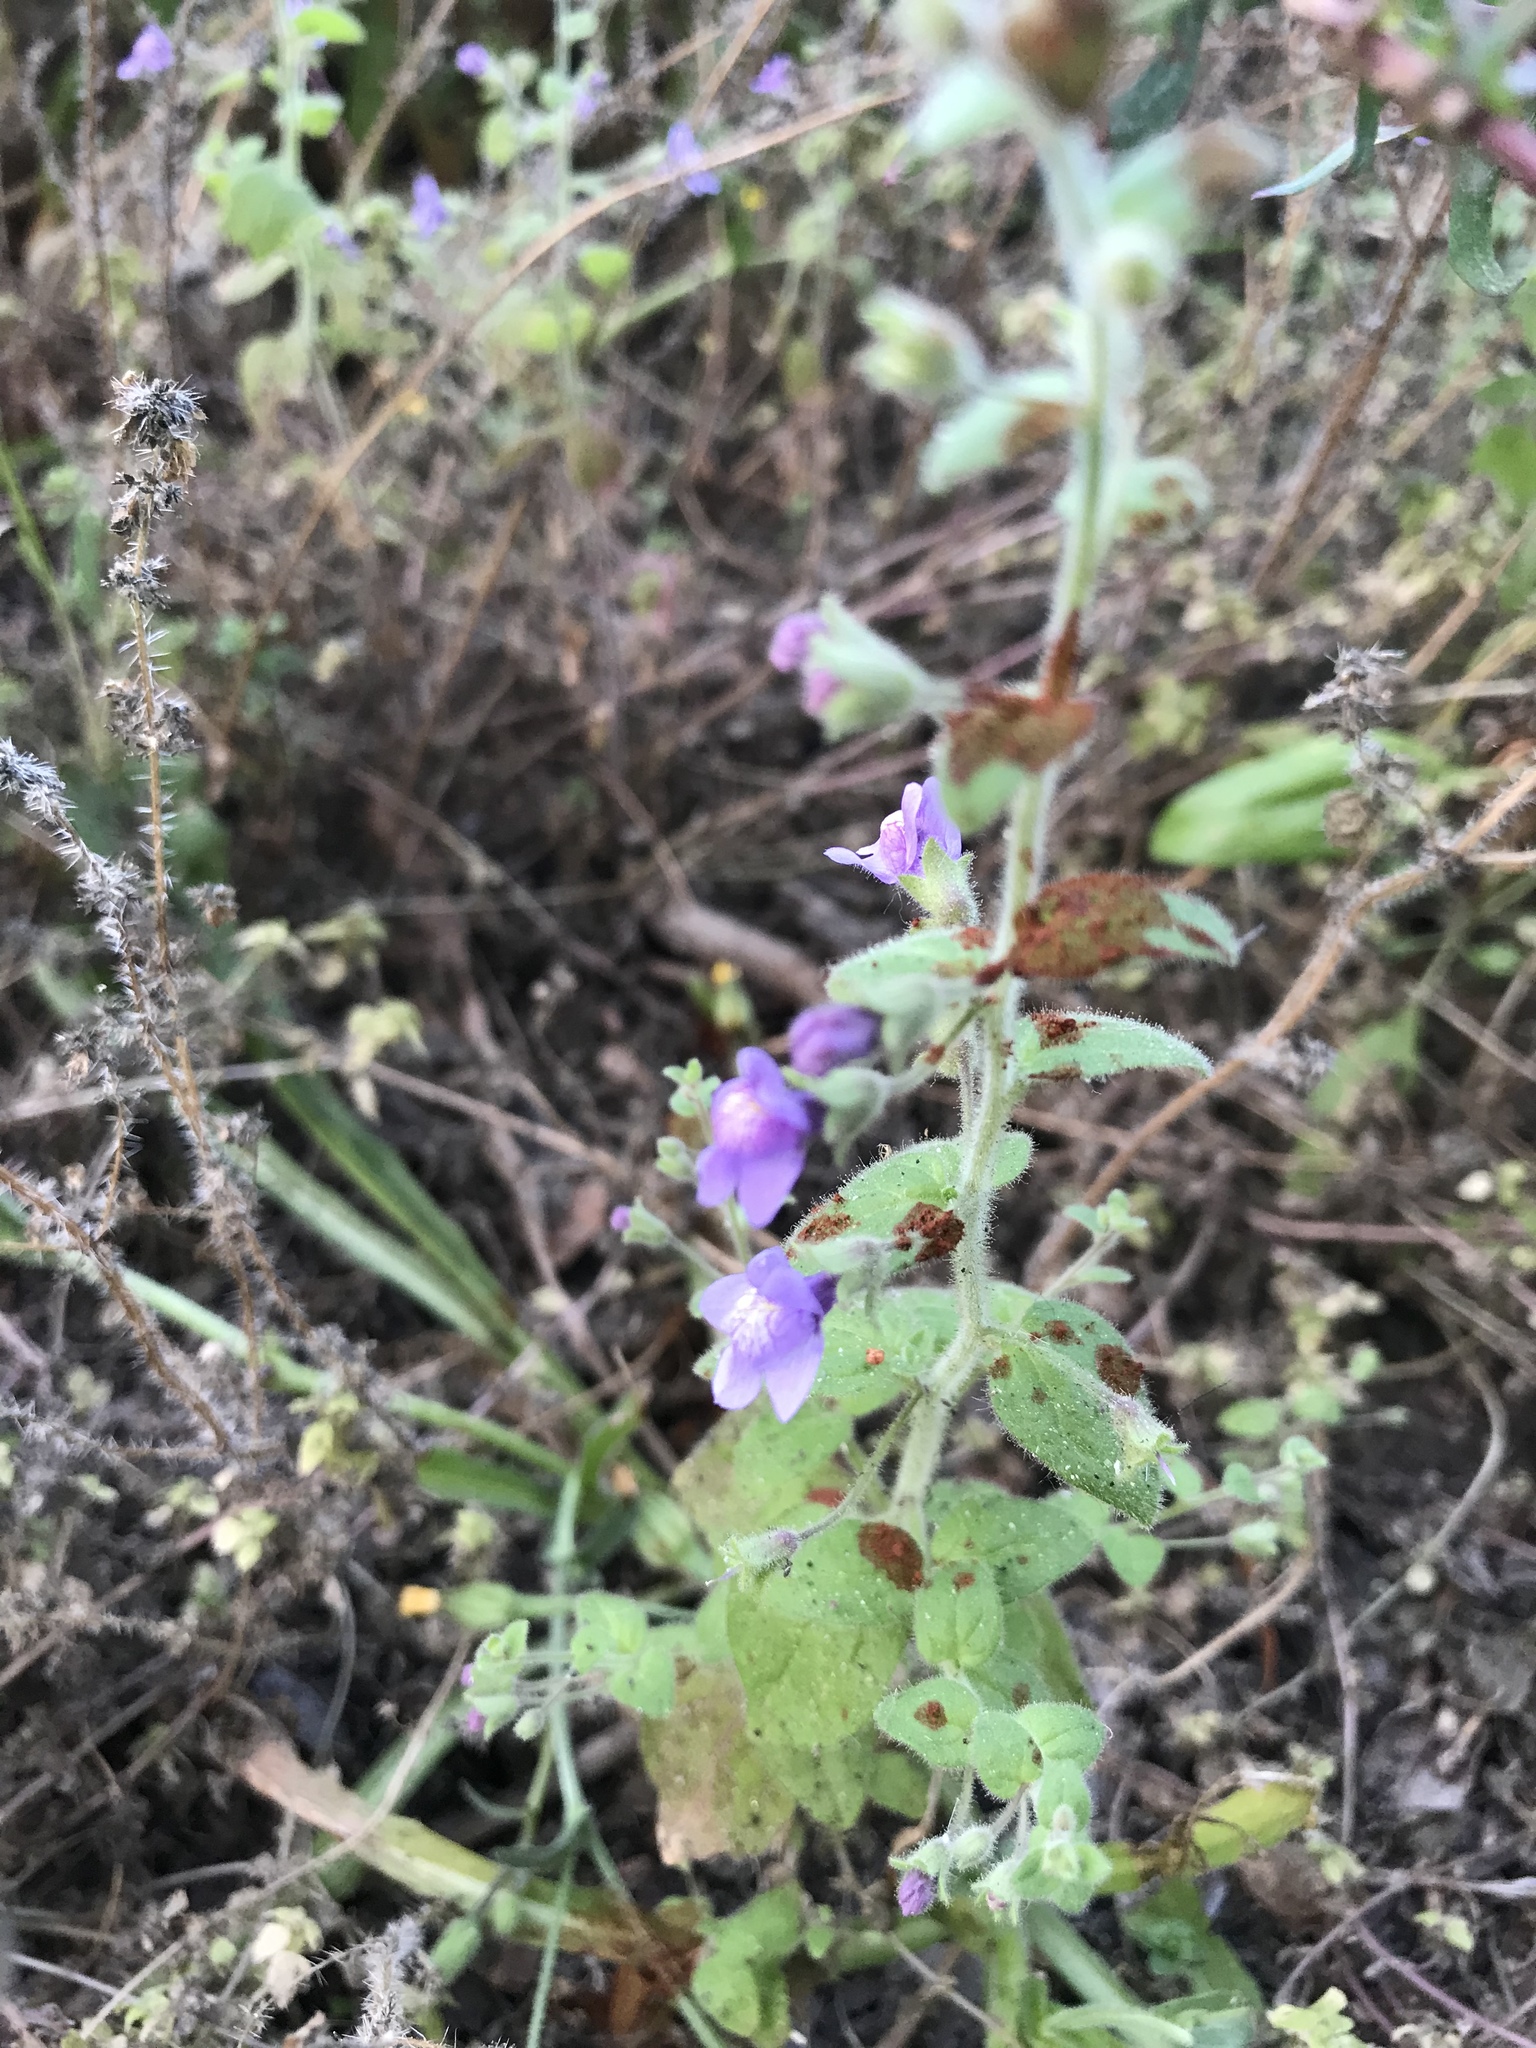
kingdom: Plantae
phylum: Tracheophyta
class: Magnoliopsida
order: Lamiales
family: Plantaginaceae
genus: Sairocarpus
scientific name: Sairocarpus nuttallianus
